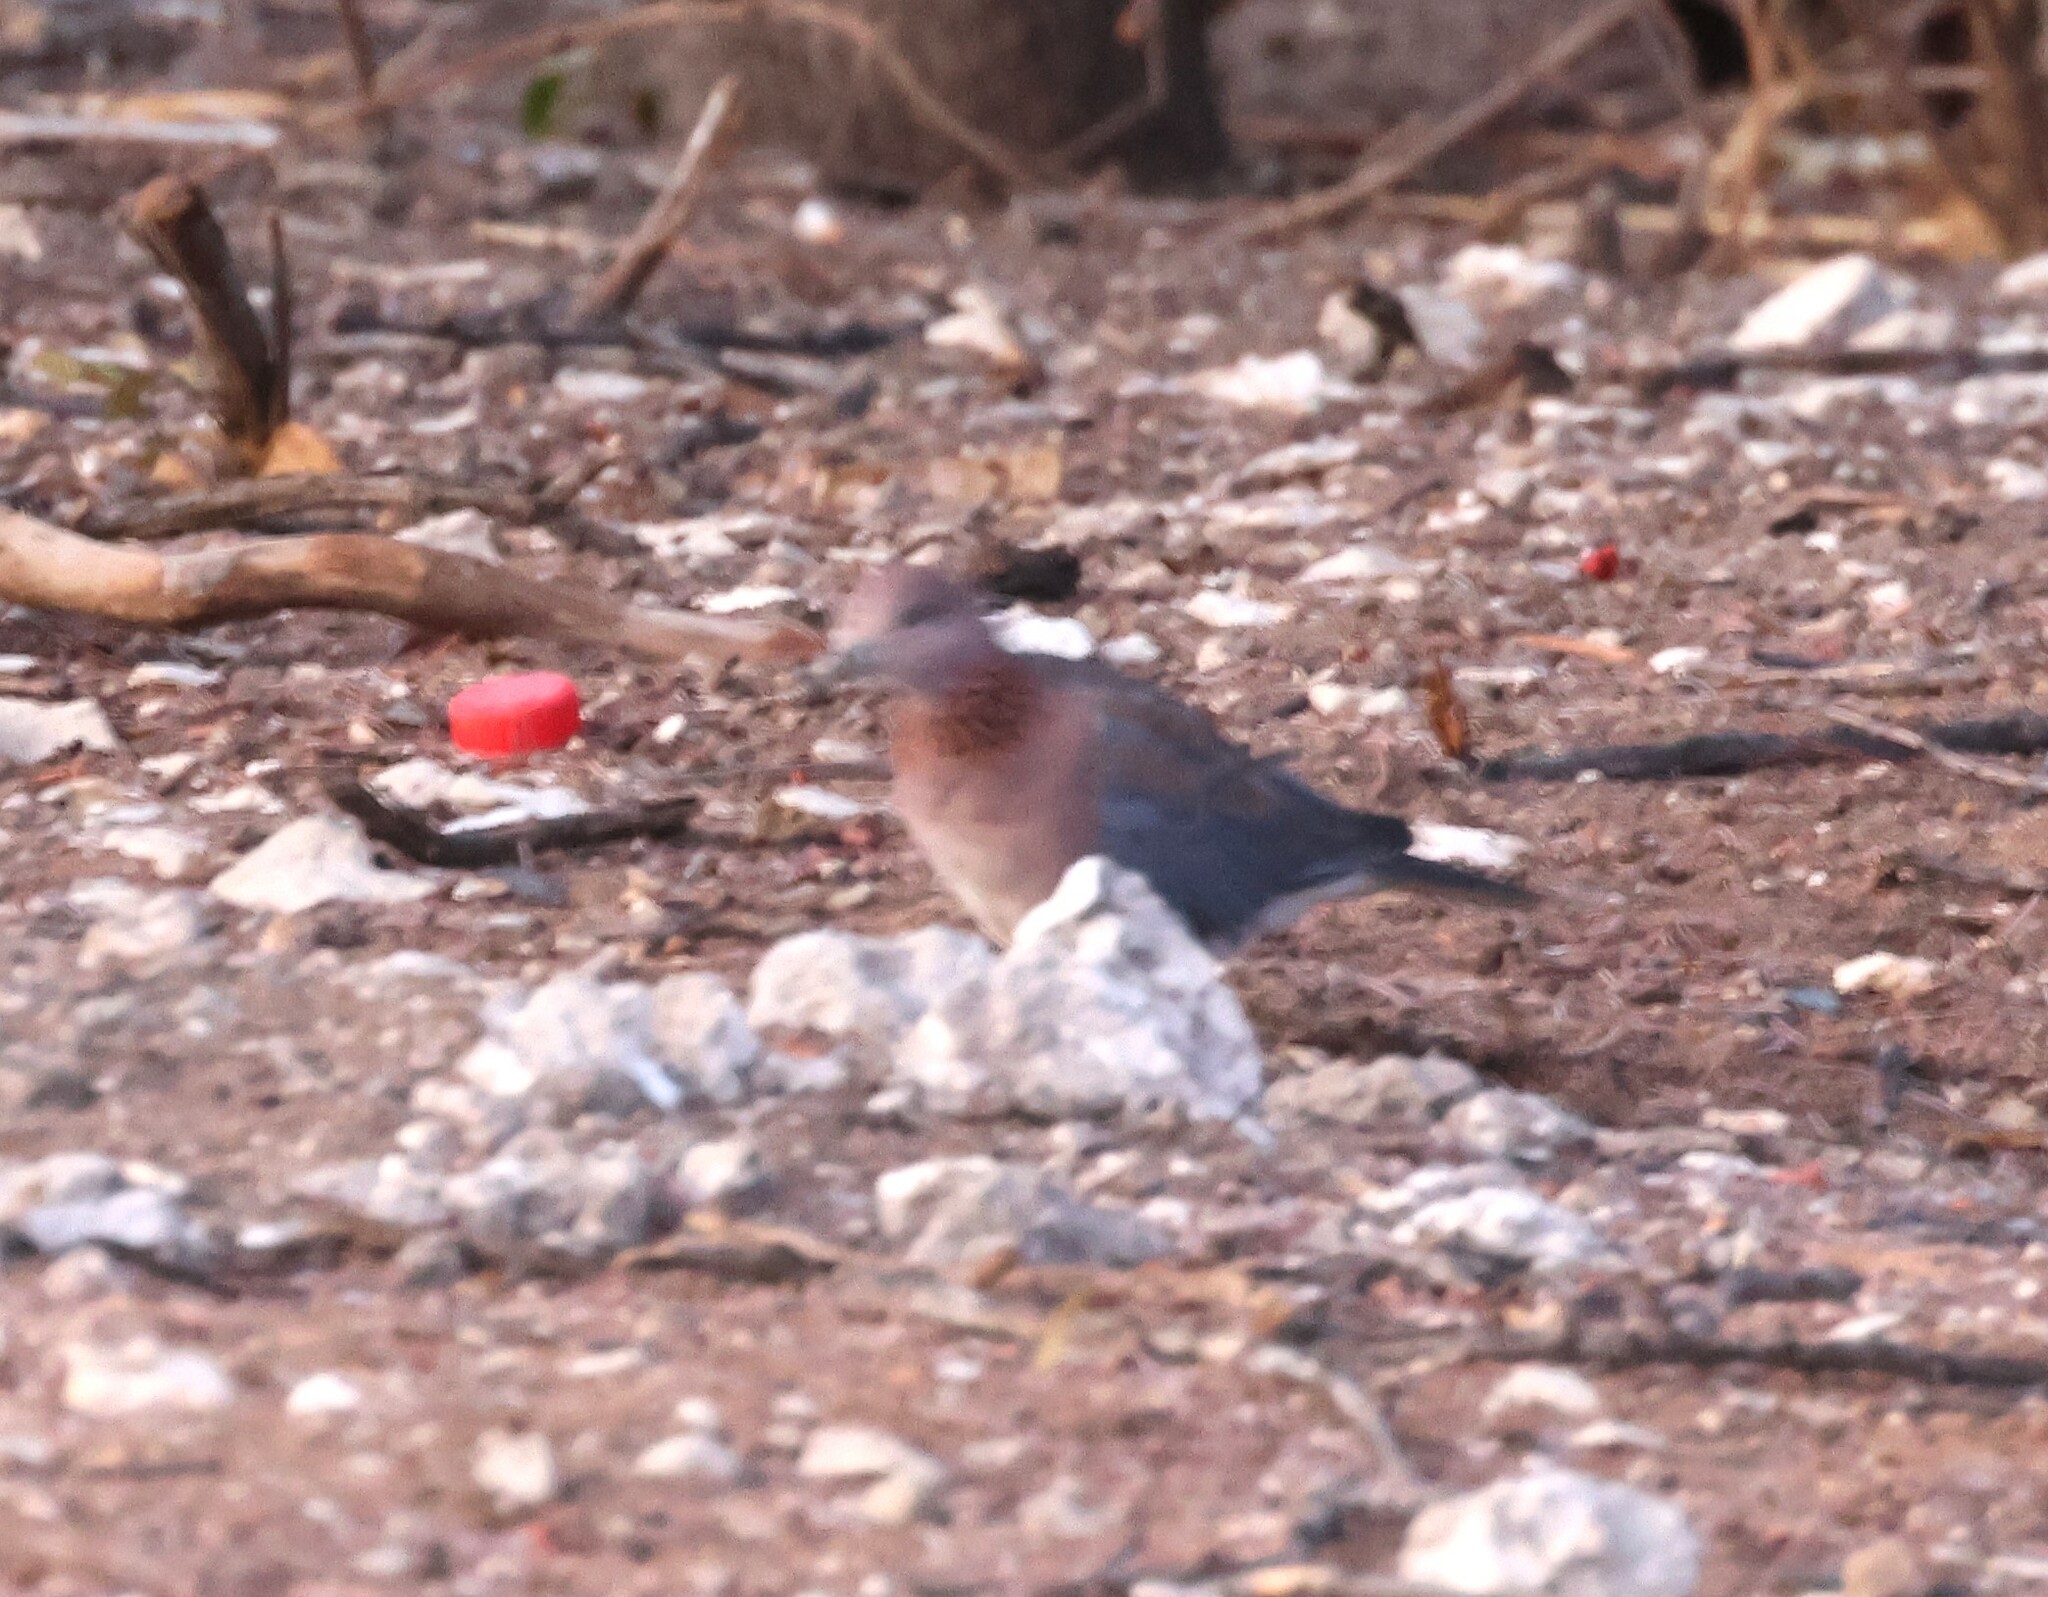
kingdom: Animalia
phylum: Chordata
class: Aves
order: Columbiformes
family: Columbidae
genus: Spilopelia
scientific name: Spilopelia senegalensis
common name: Laughing dove
